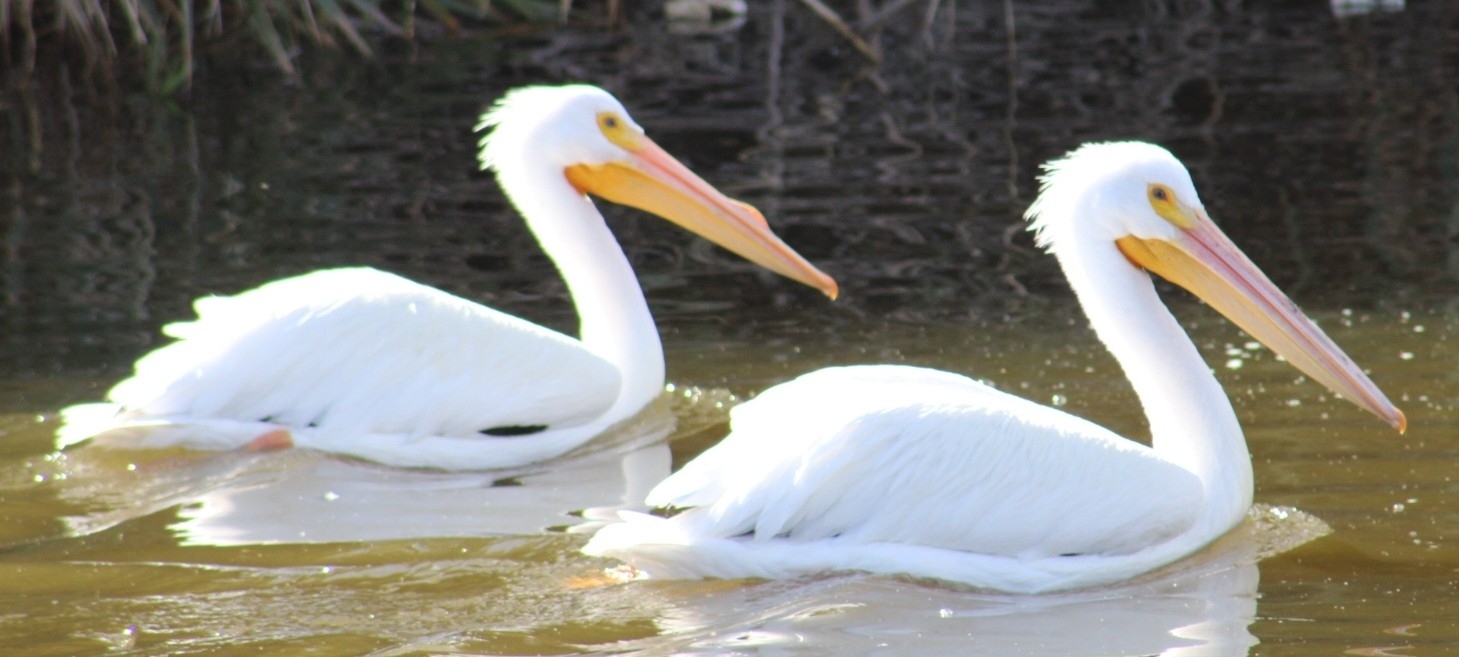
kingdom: Animalia
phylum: Chordata
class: Aves
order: Pelecaniformes
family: Pelecanidae
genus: Pelecanus
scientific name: Pelecanus erythrorhynchos
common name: American white pelican
